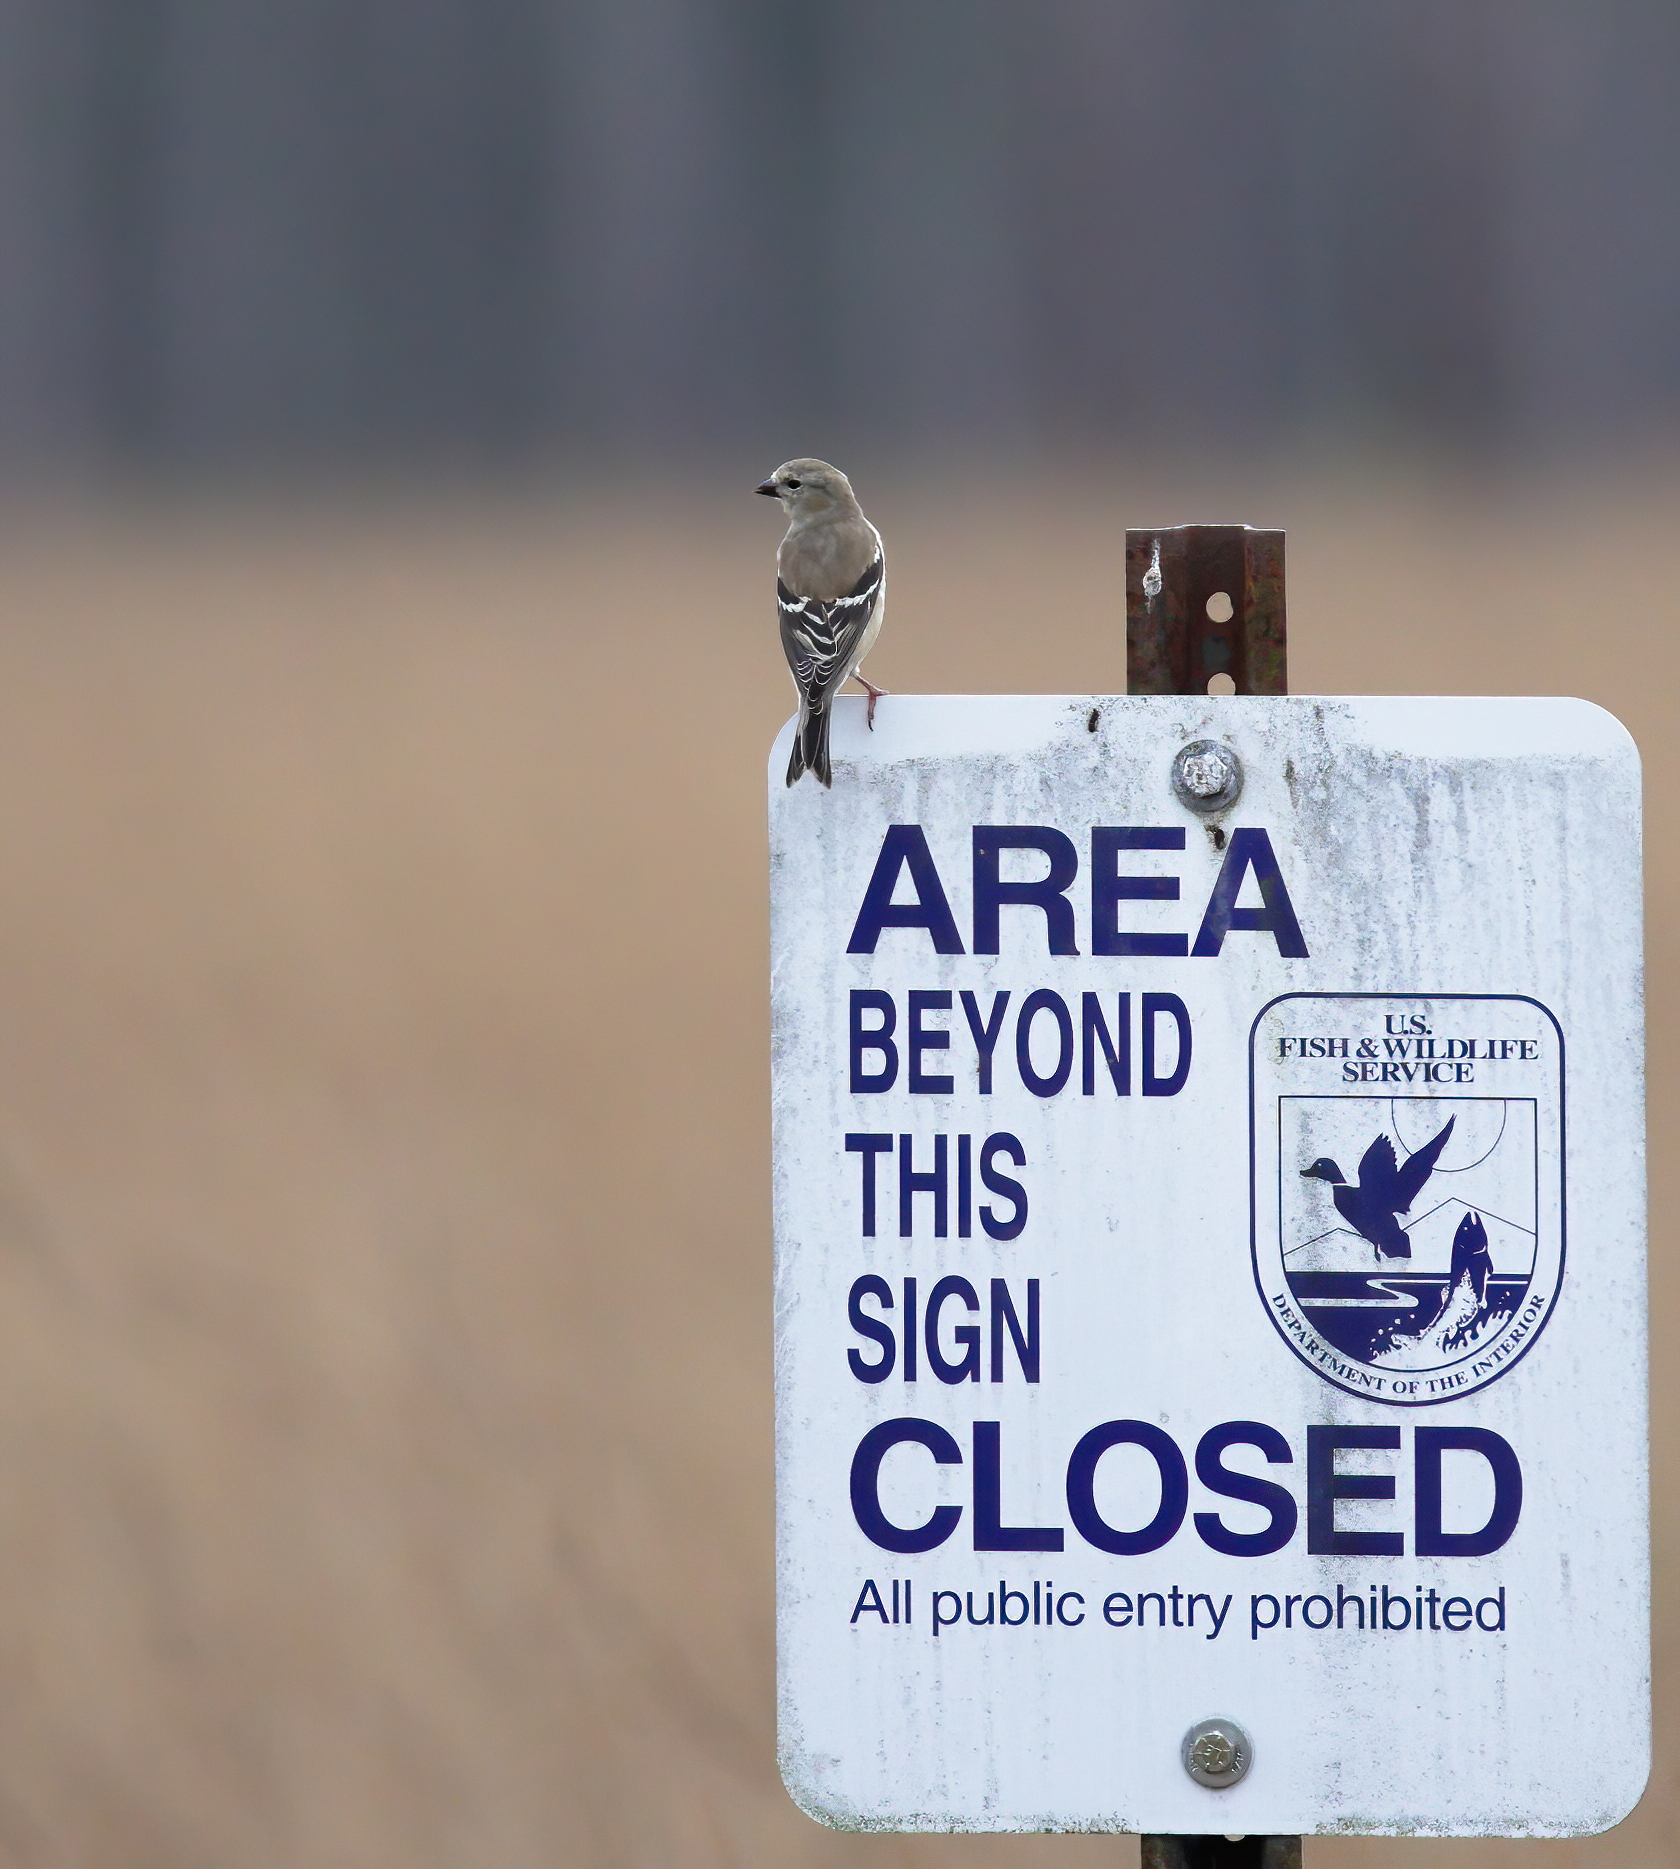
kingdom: Animalia
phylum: Chordata
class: Aves
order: Passeriformes
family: Fringillidae
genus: Spinus
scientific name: Spinus tristis
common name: American goldfinch
